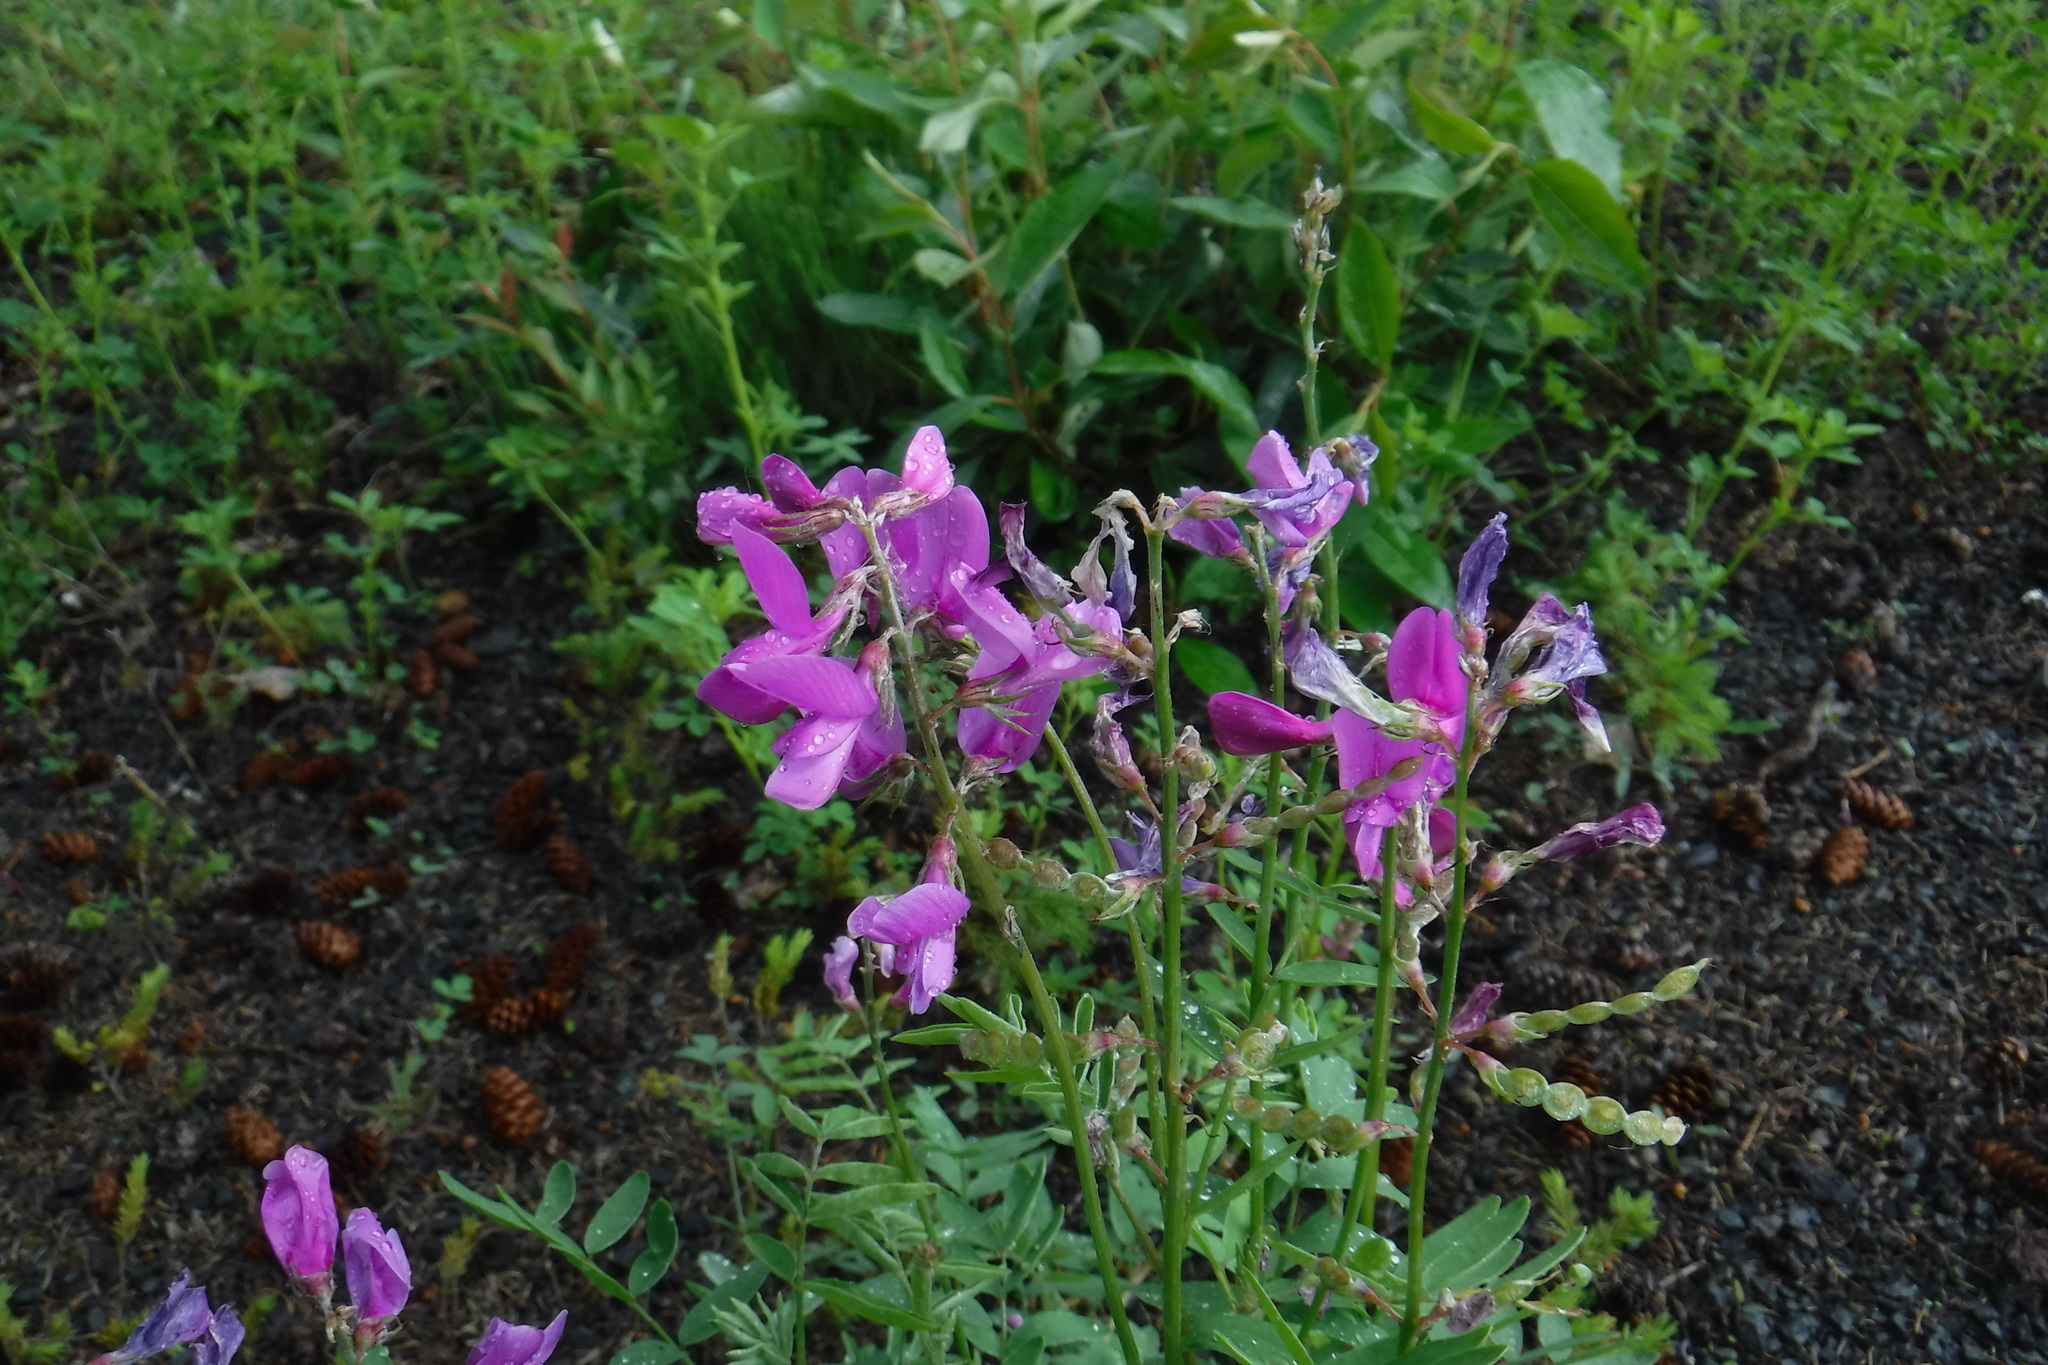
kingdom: Plantae
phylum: Tracheophyta
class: Magnoliopsida
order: Fabales
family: Fabaceae
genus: Hedysarum
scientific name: Hedysarum boreale
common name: Northern sweet-vetch
